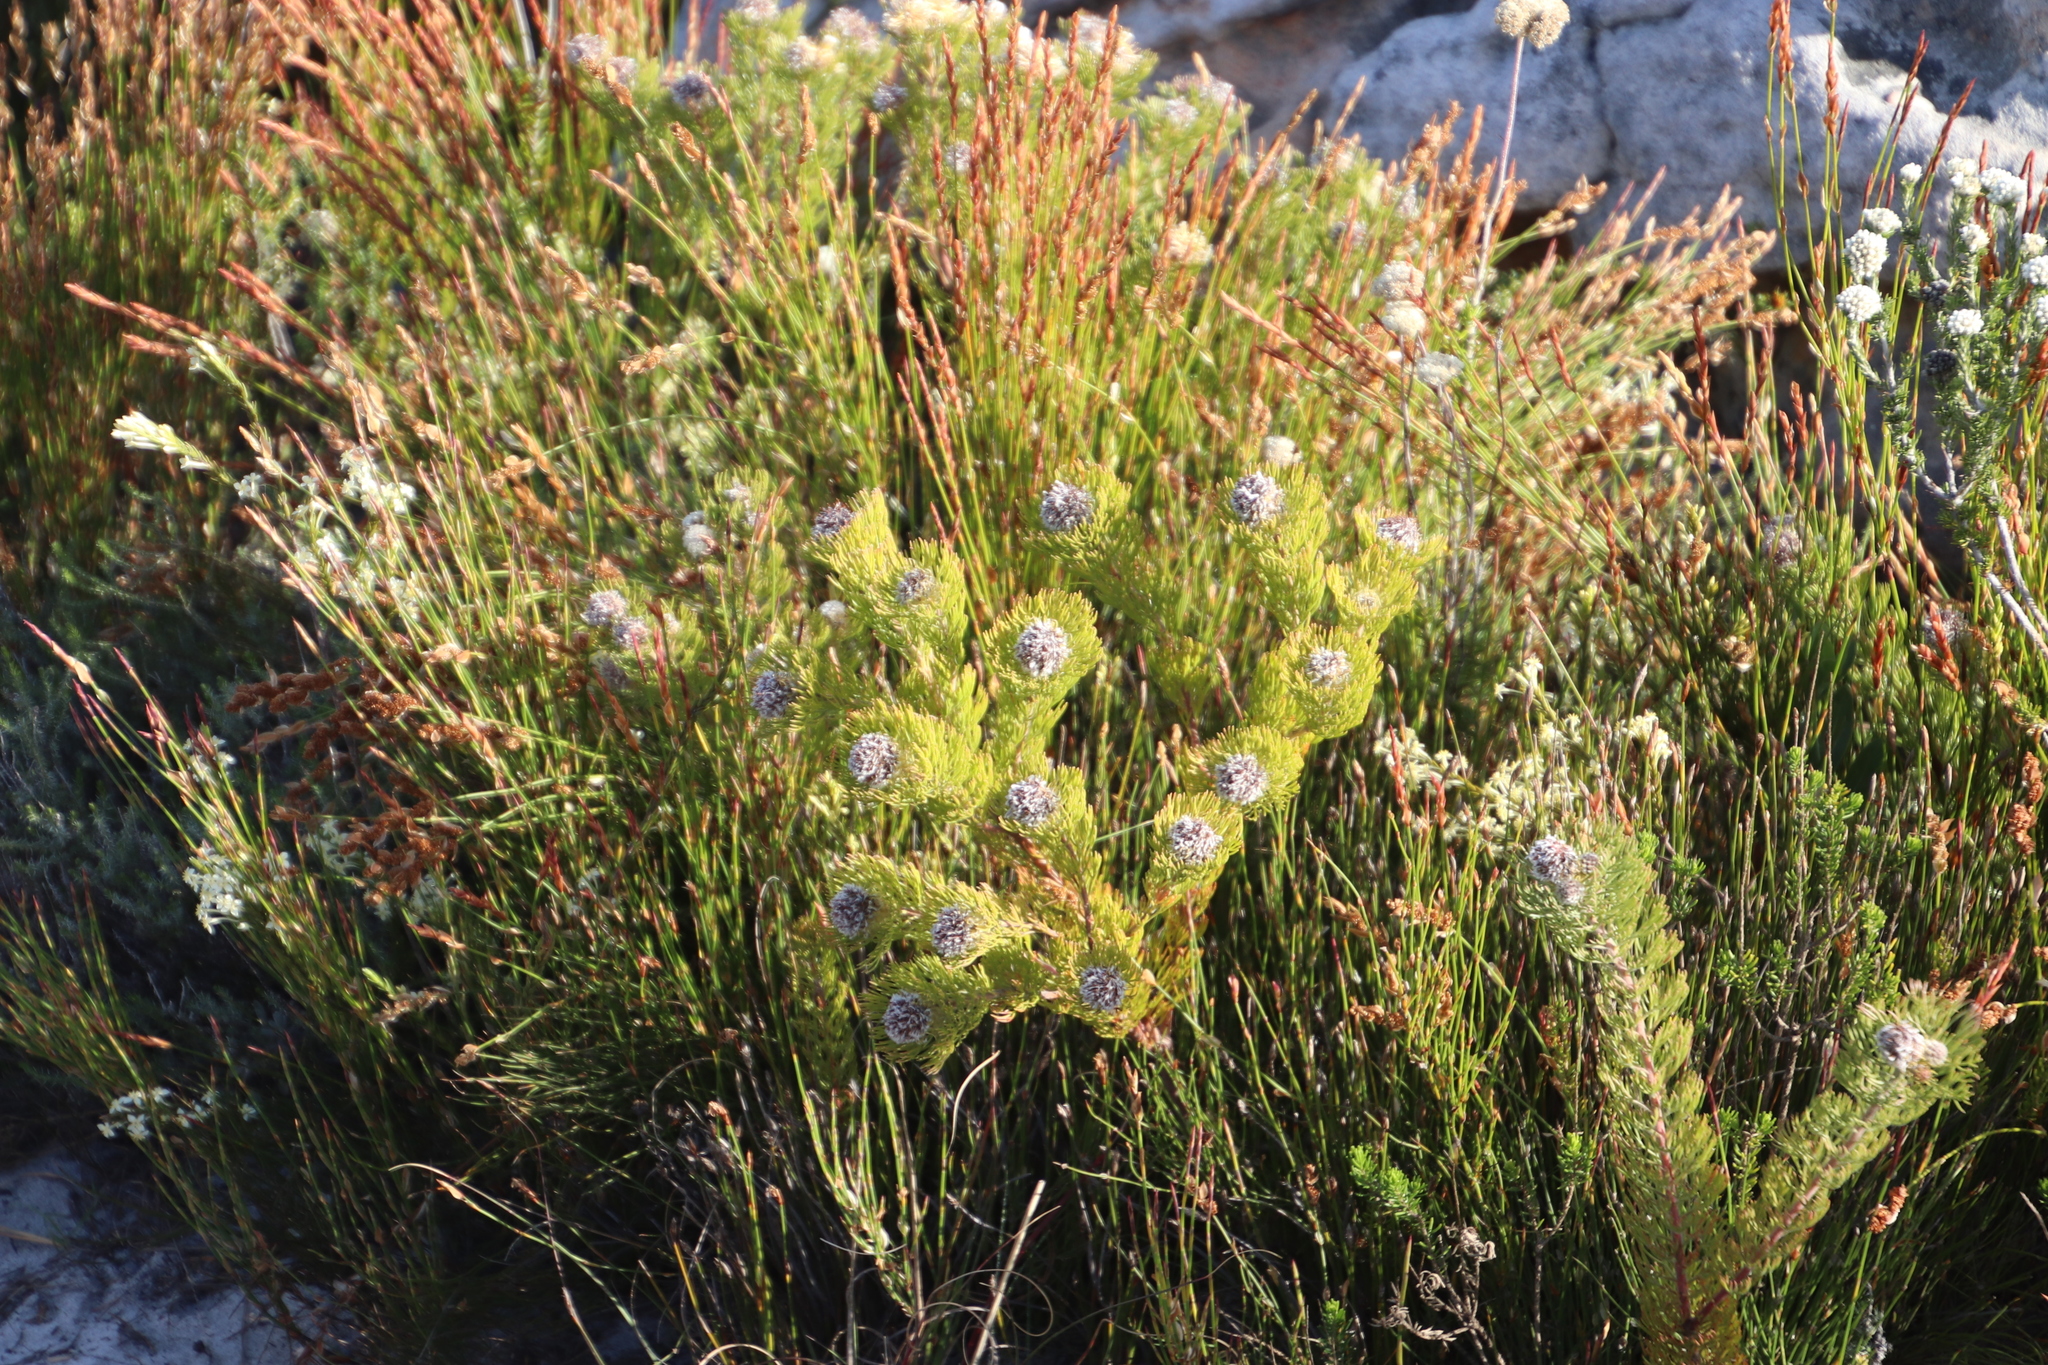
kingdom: Plantae
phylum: Tracheophyta
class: Magnoliopsida
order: Proteales
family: Proteaceae
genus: Serruria
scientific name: Serruria villosa
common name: Golden spiderhead
